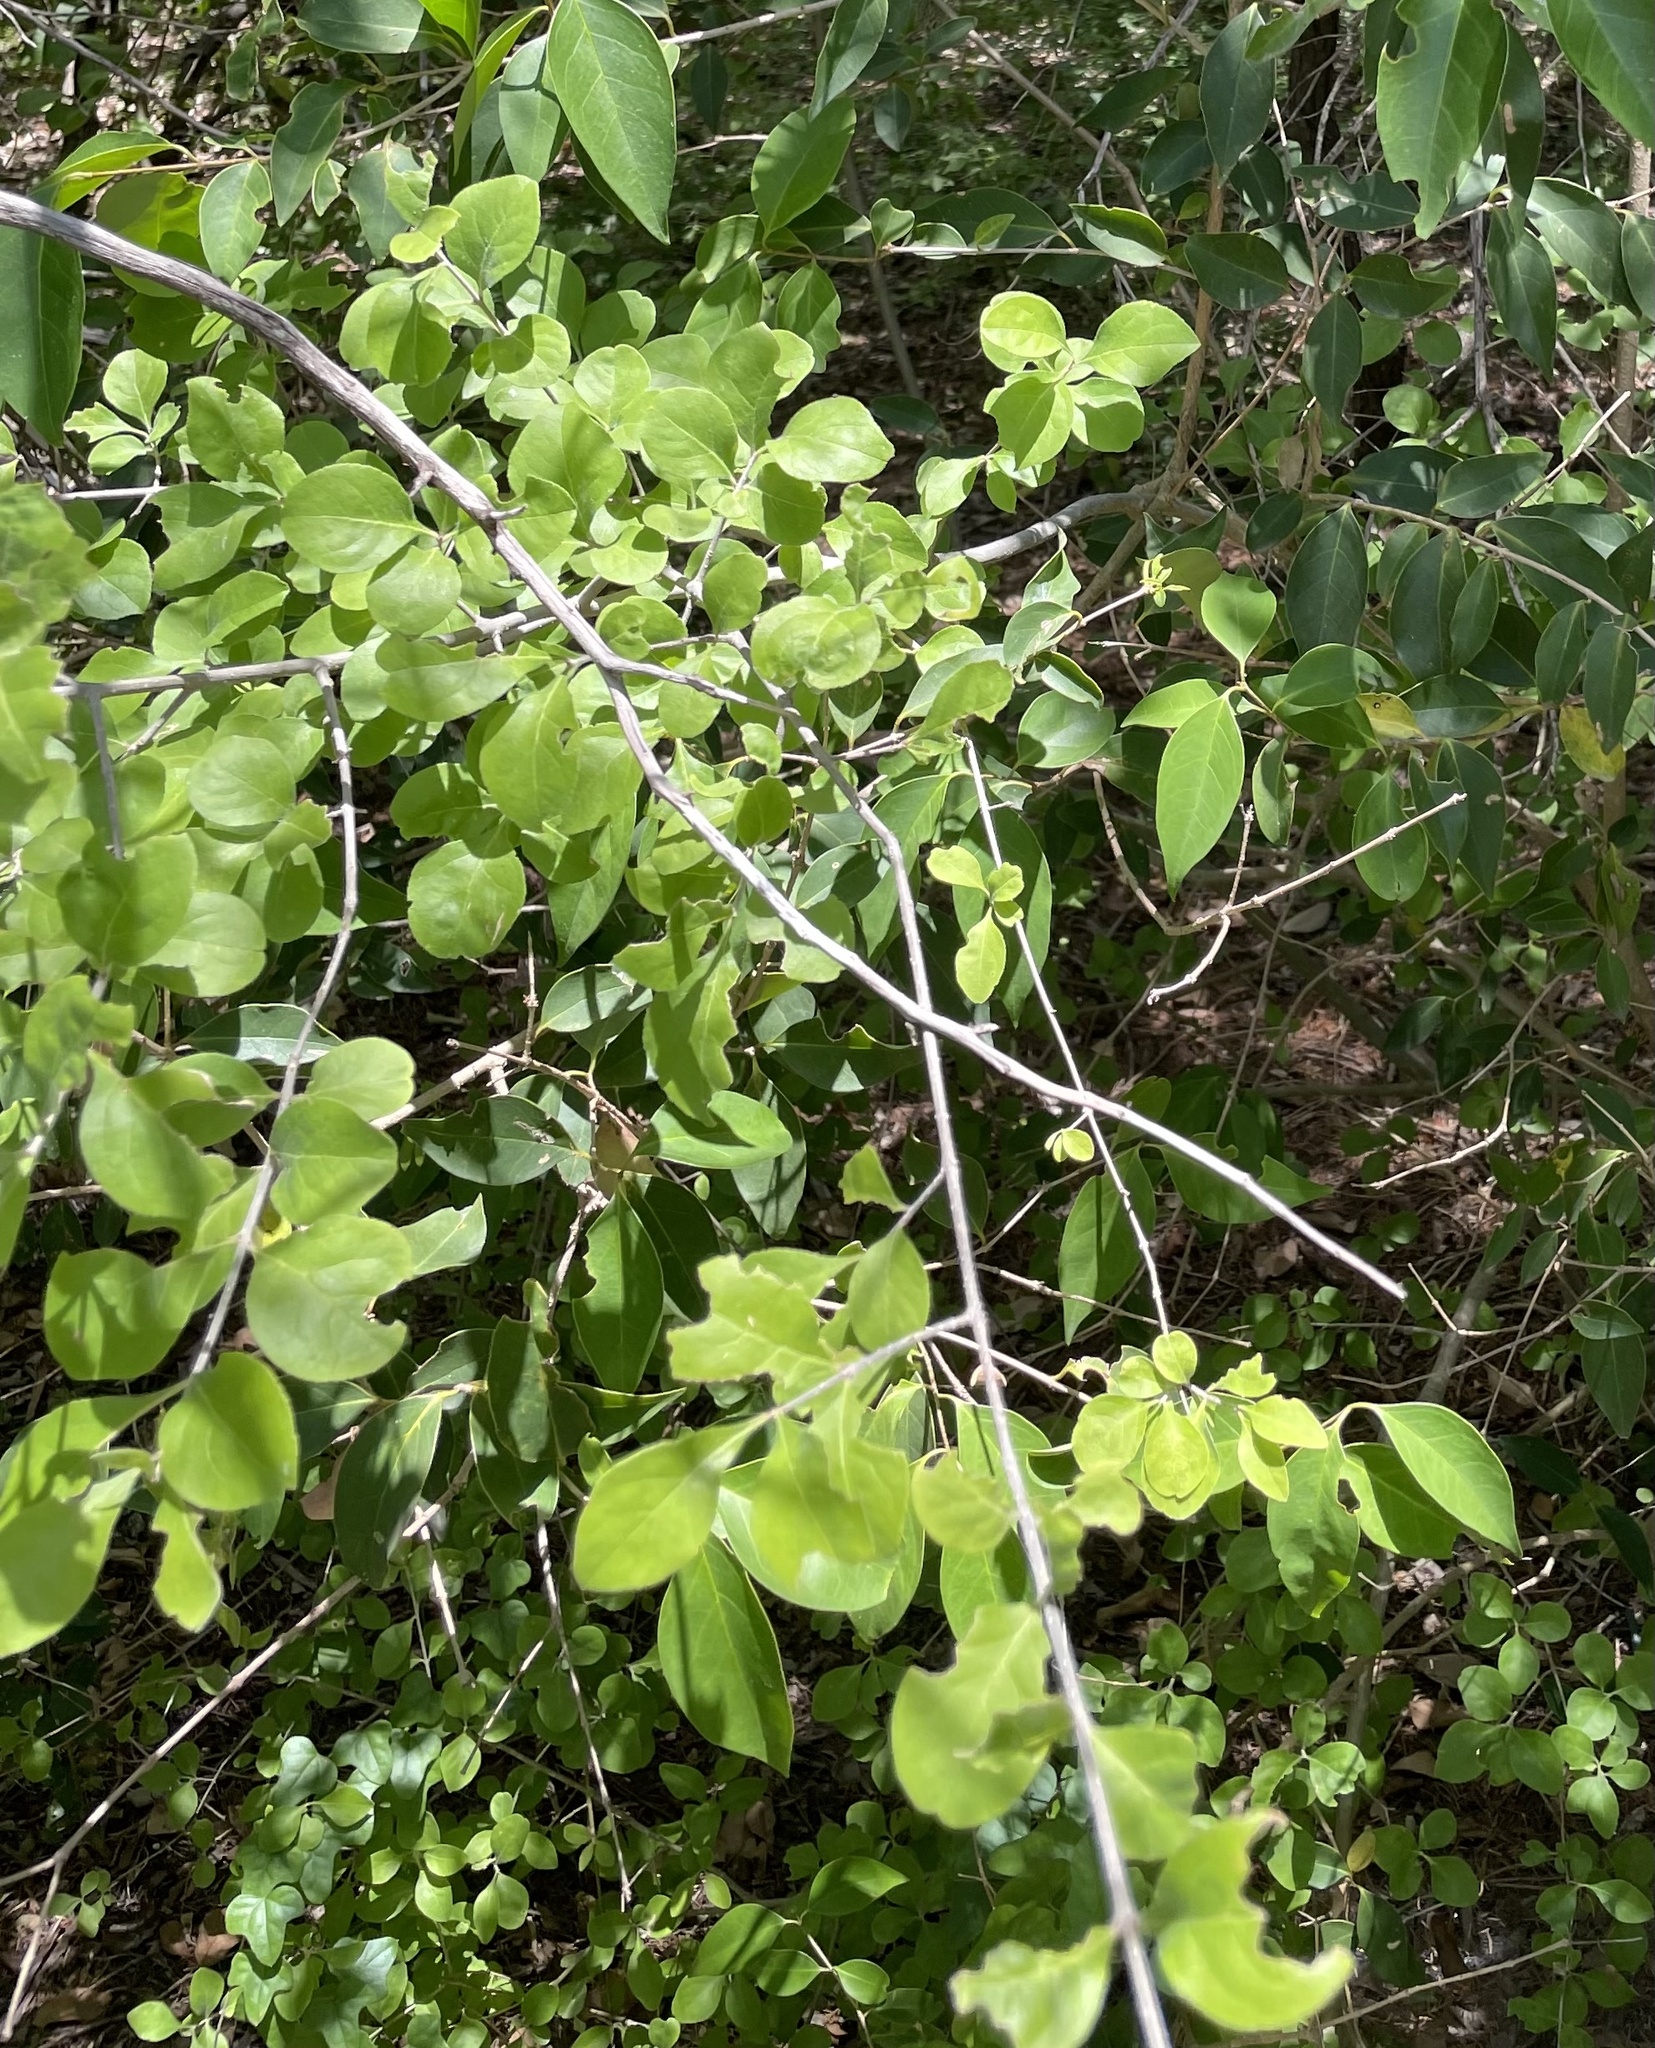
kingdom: Plantae
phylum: Tracheophyta
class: Magnoliopsida
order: Lamiales
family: Oleaceae
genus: Forestiera
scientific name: Forestiera pubescens
